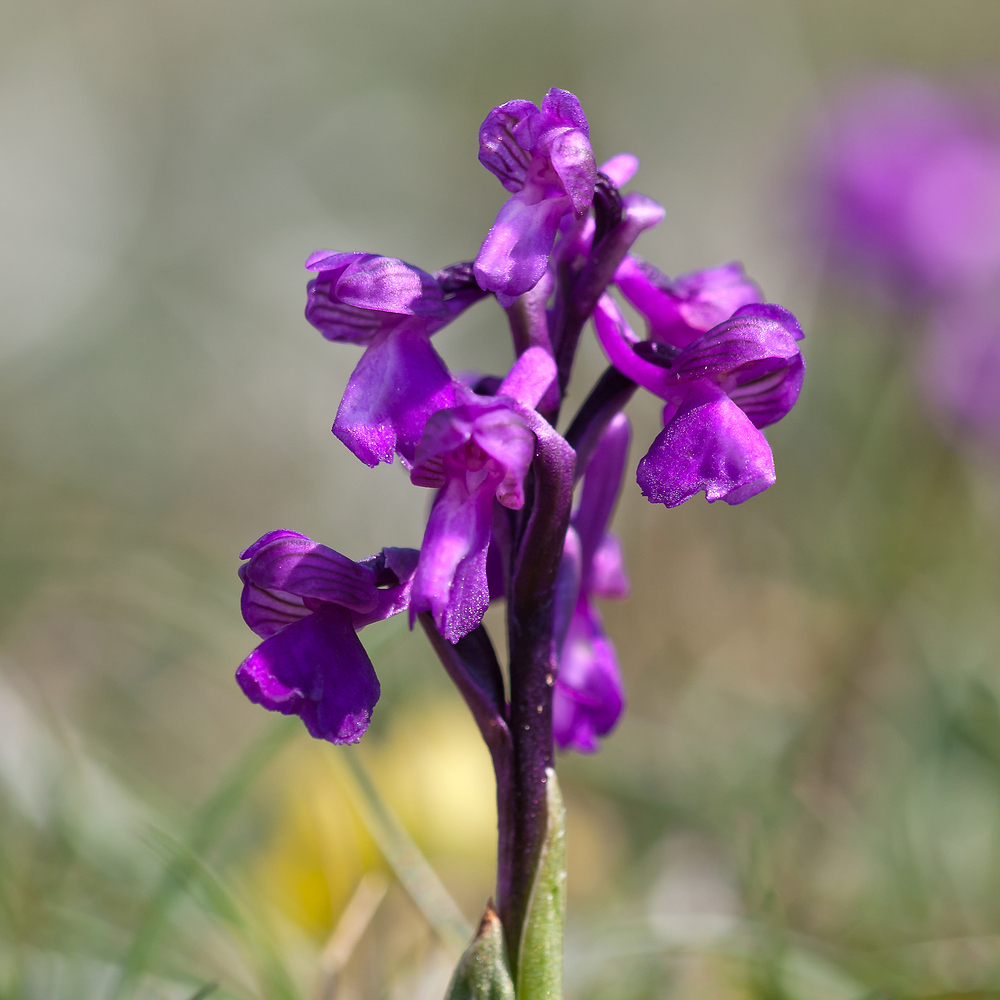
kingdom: Plantae
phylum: Tracheophyta
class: Liliopsida
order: Asparagales
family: Orchidaceae
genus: Anacamptis
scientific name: Anacamptis morio
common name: Green-winged orchid
